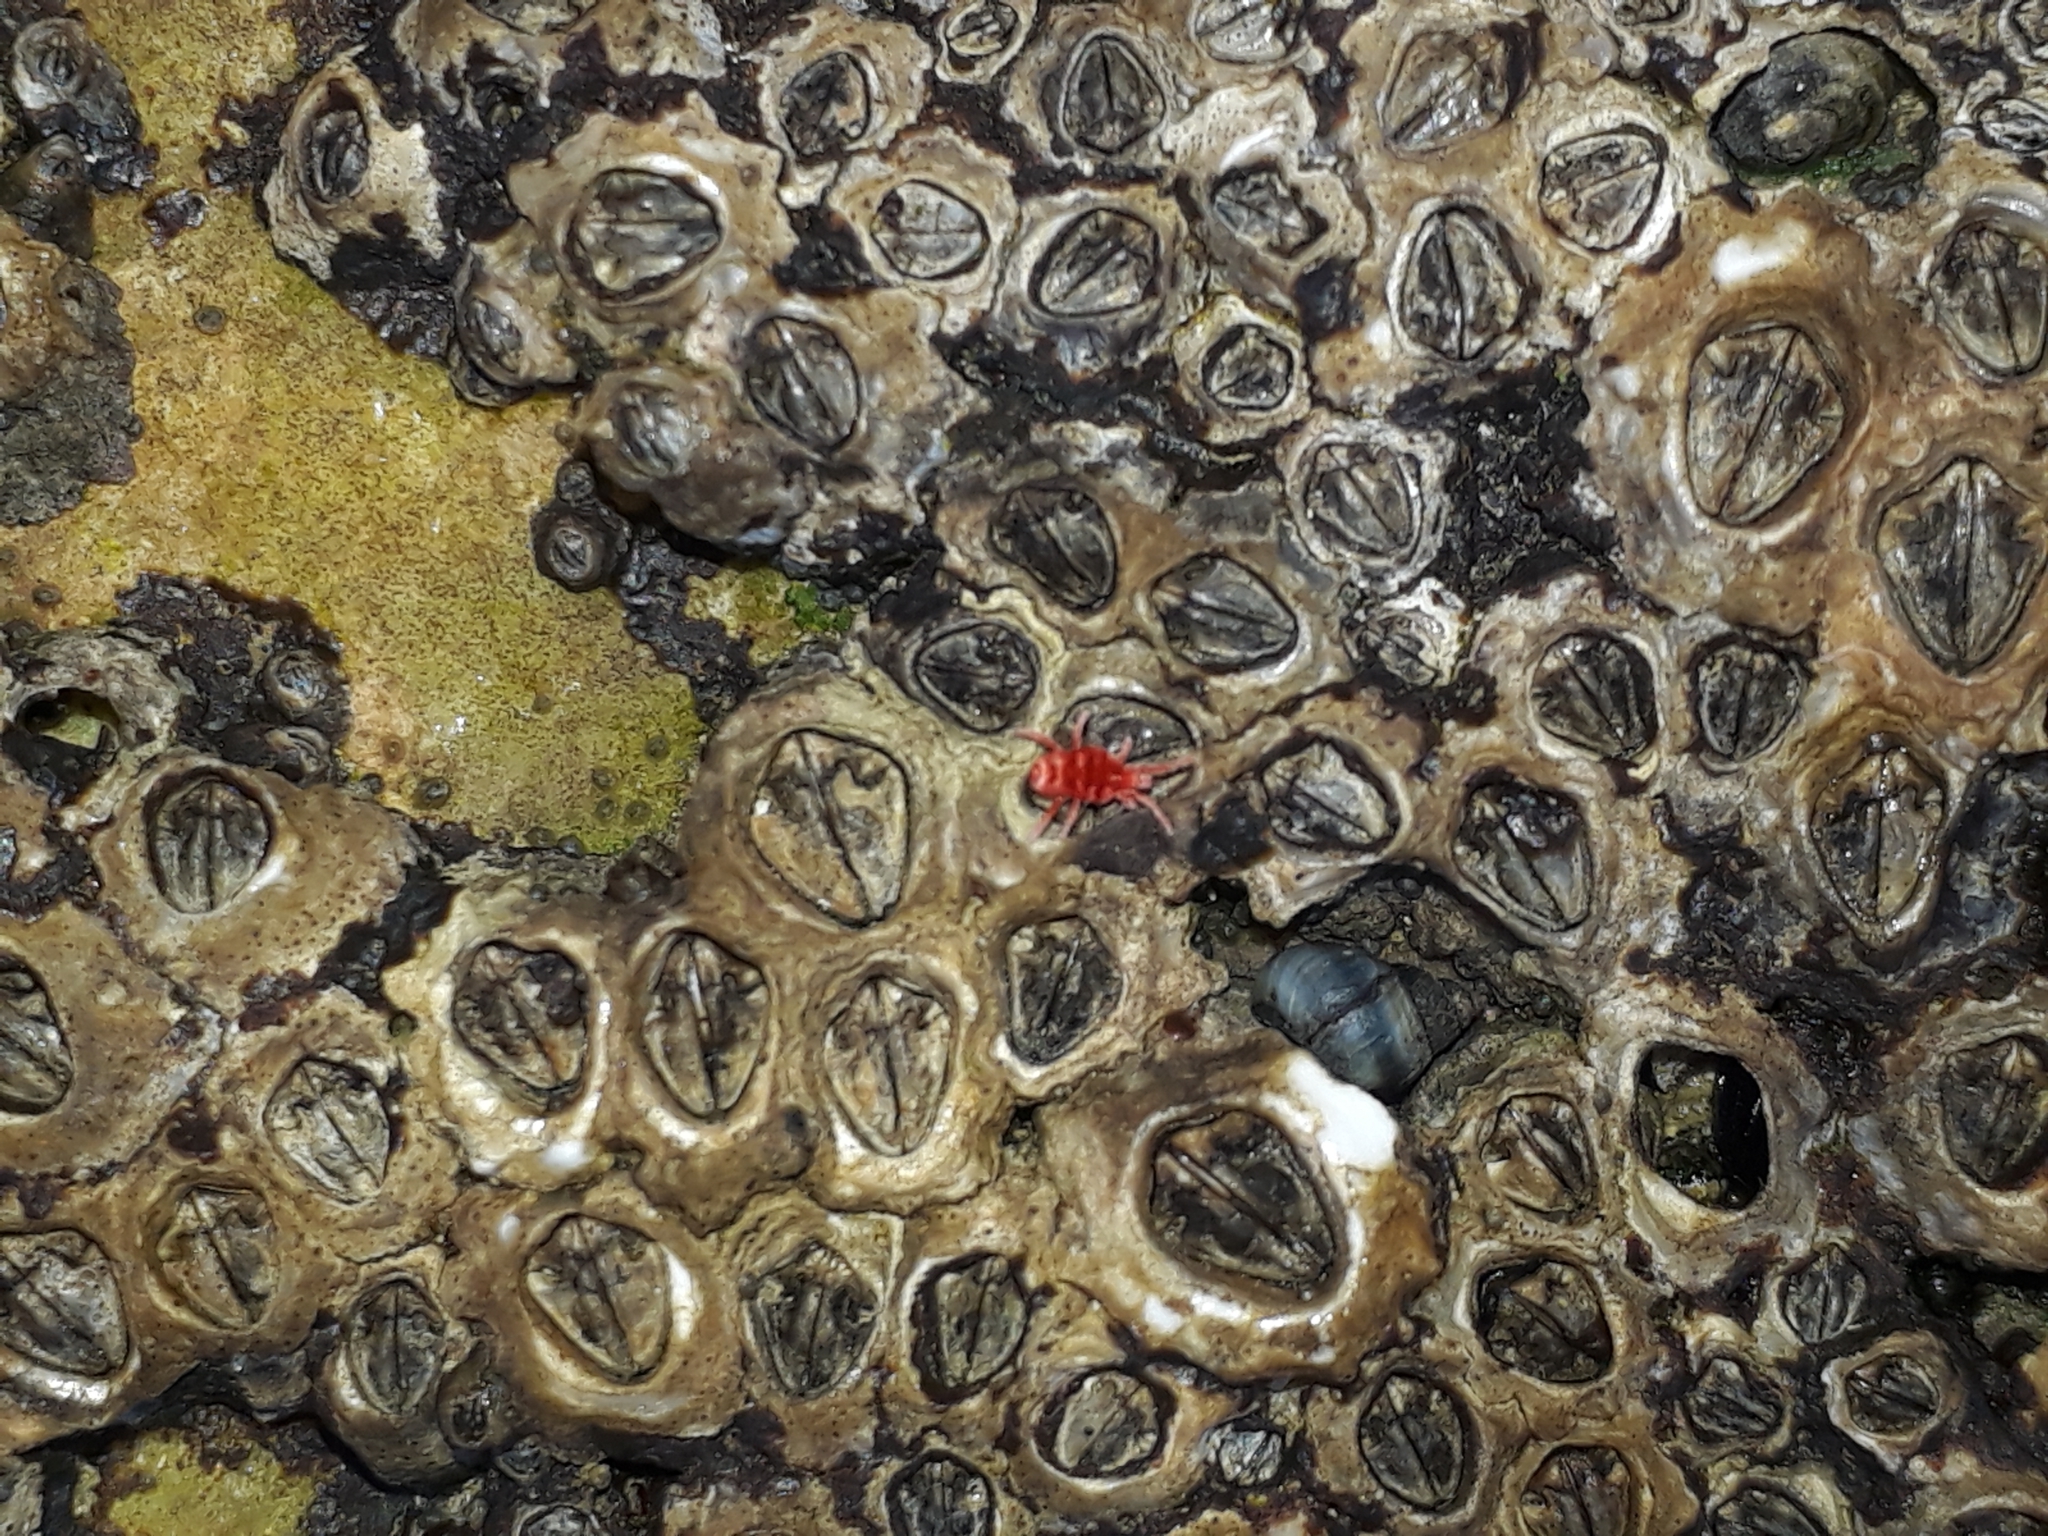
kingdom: Animalia
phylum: Arthropoda
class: Maxillopoda
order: Sessilia
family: Chthamalidae
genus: Chamaesipho
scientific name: Chamaesipho columna
